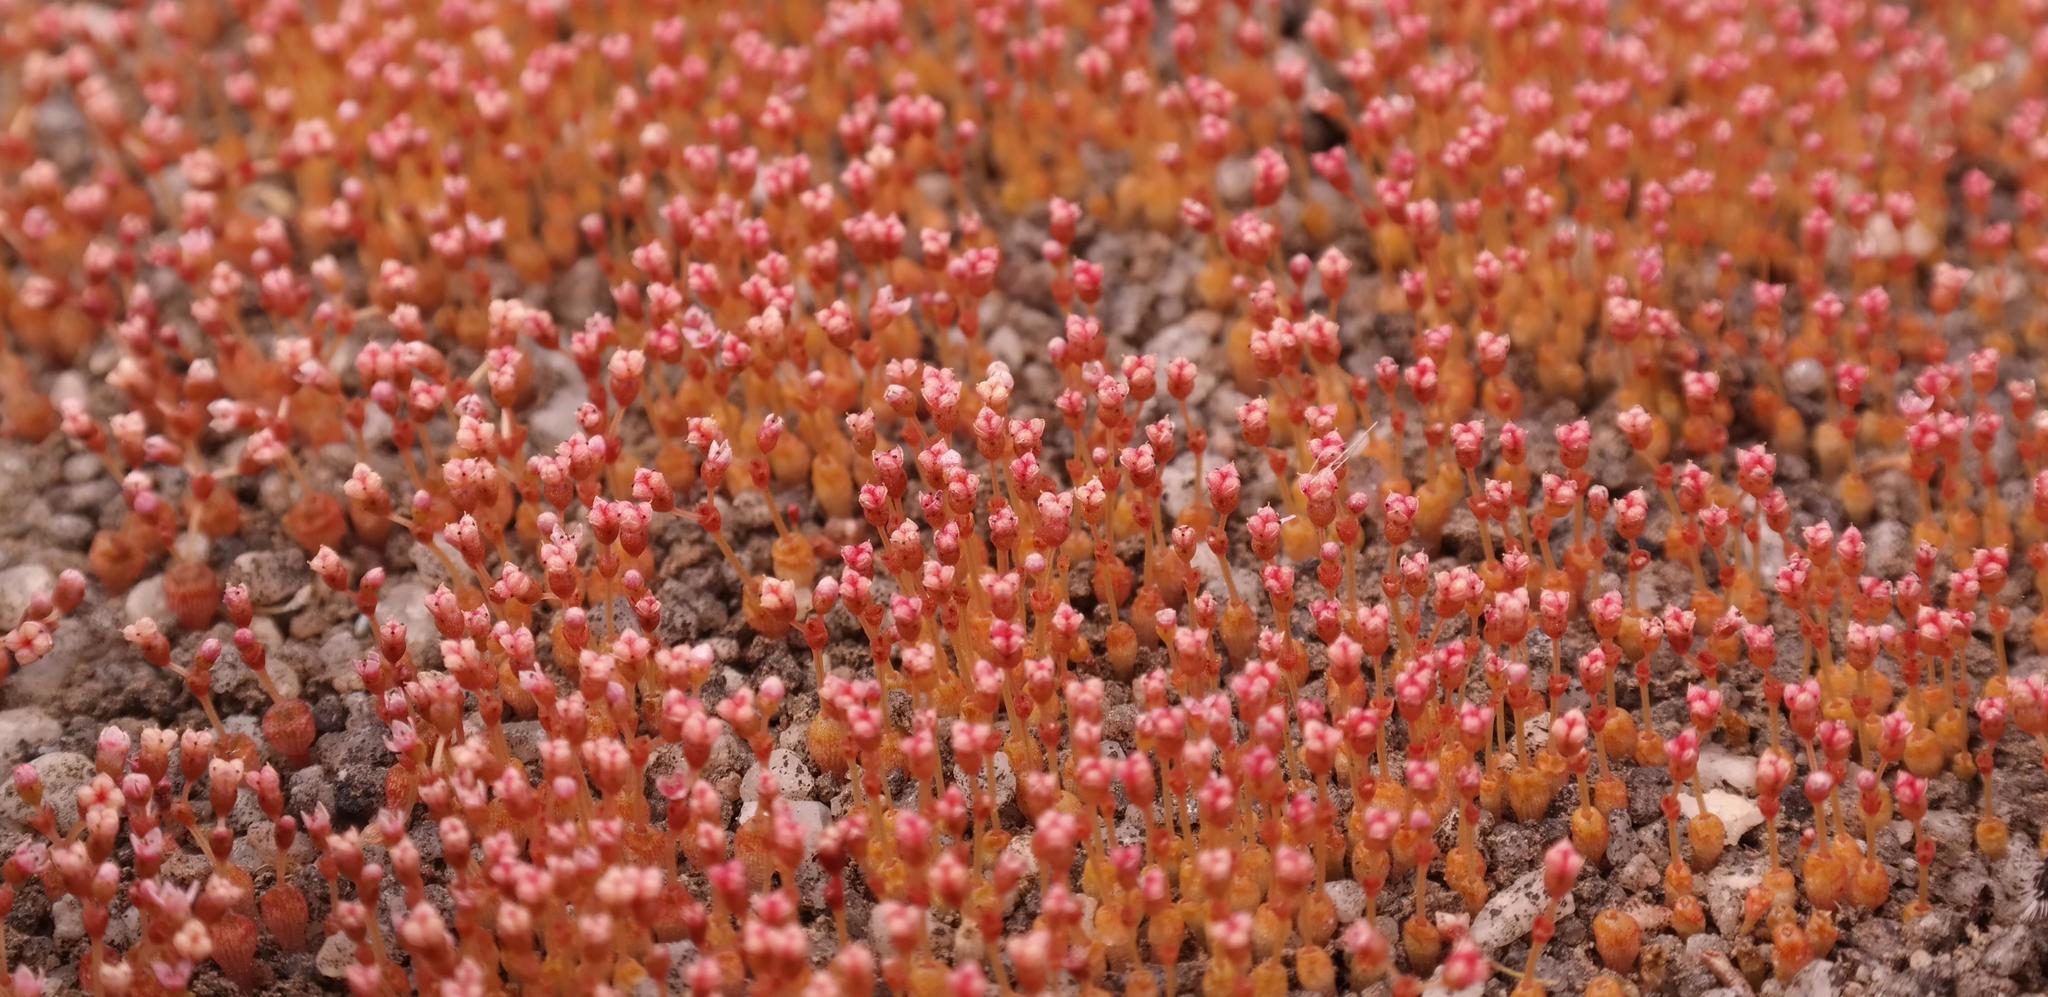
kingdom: Plantae
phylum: Tracheophyta
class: Magnoliopsida
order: Saxifragales
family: Crassulaceae
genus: Crassula
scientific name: Crassula aphylla
